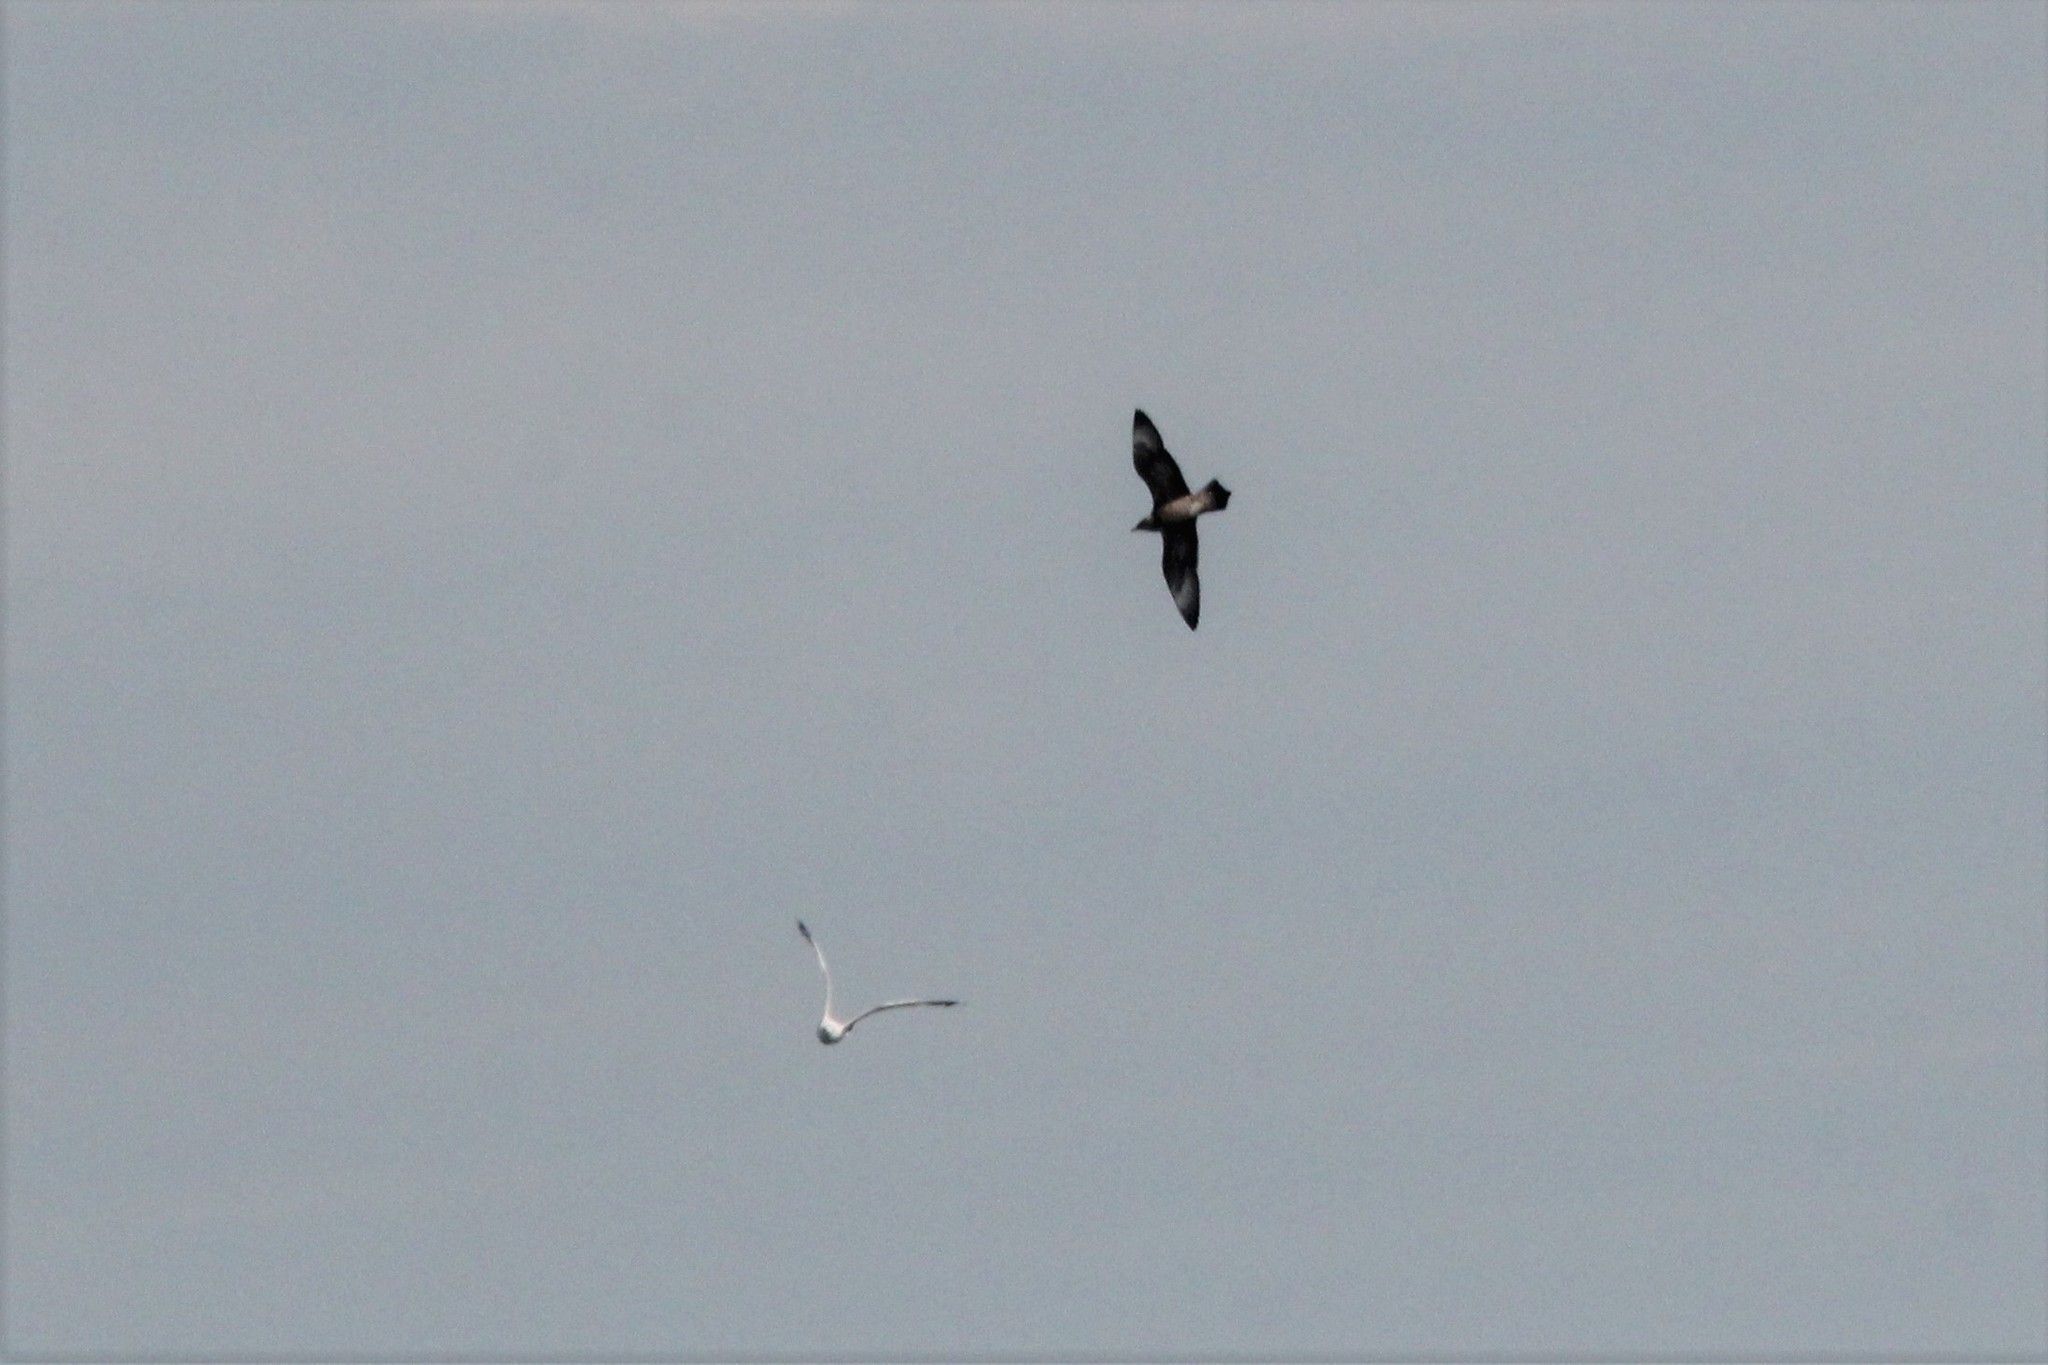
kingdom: Animalia
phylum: Chordata
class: Aves
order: Charadriiformes
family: Stercorariidae
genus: Stercorarius
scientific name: Stercorarius pomarinus
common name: Pomarine jaeger
